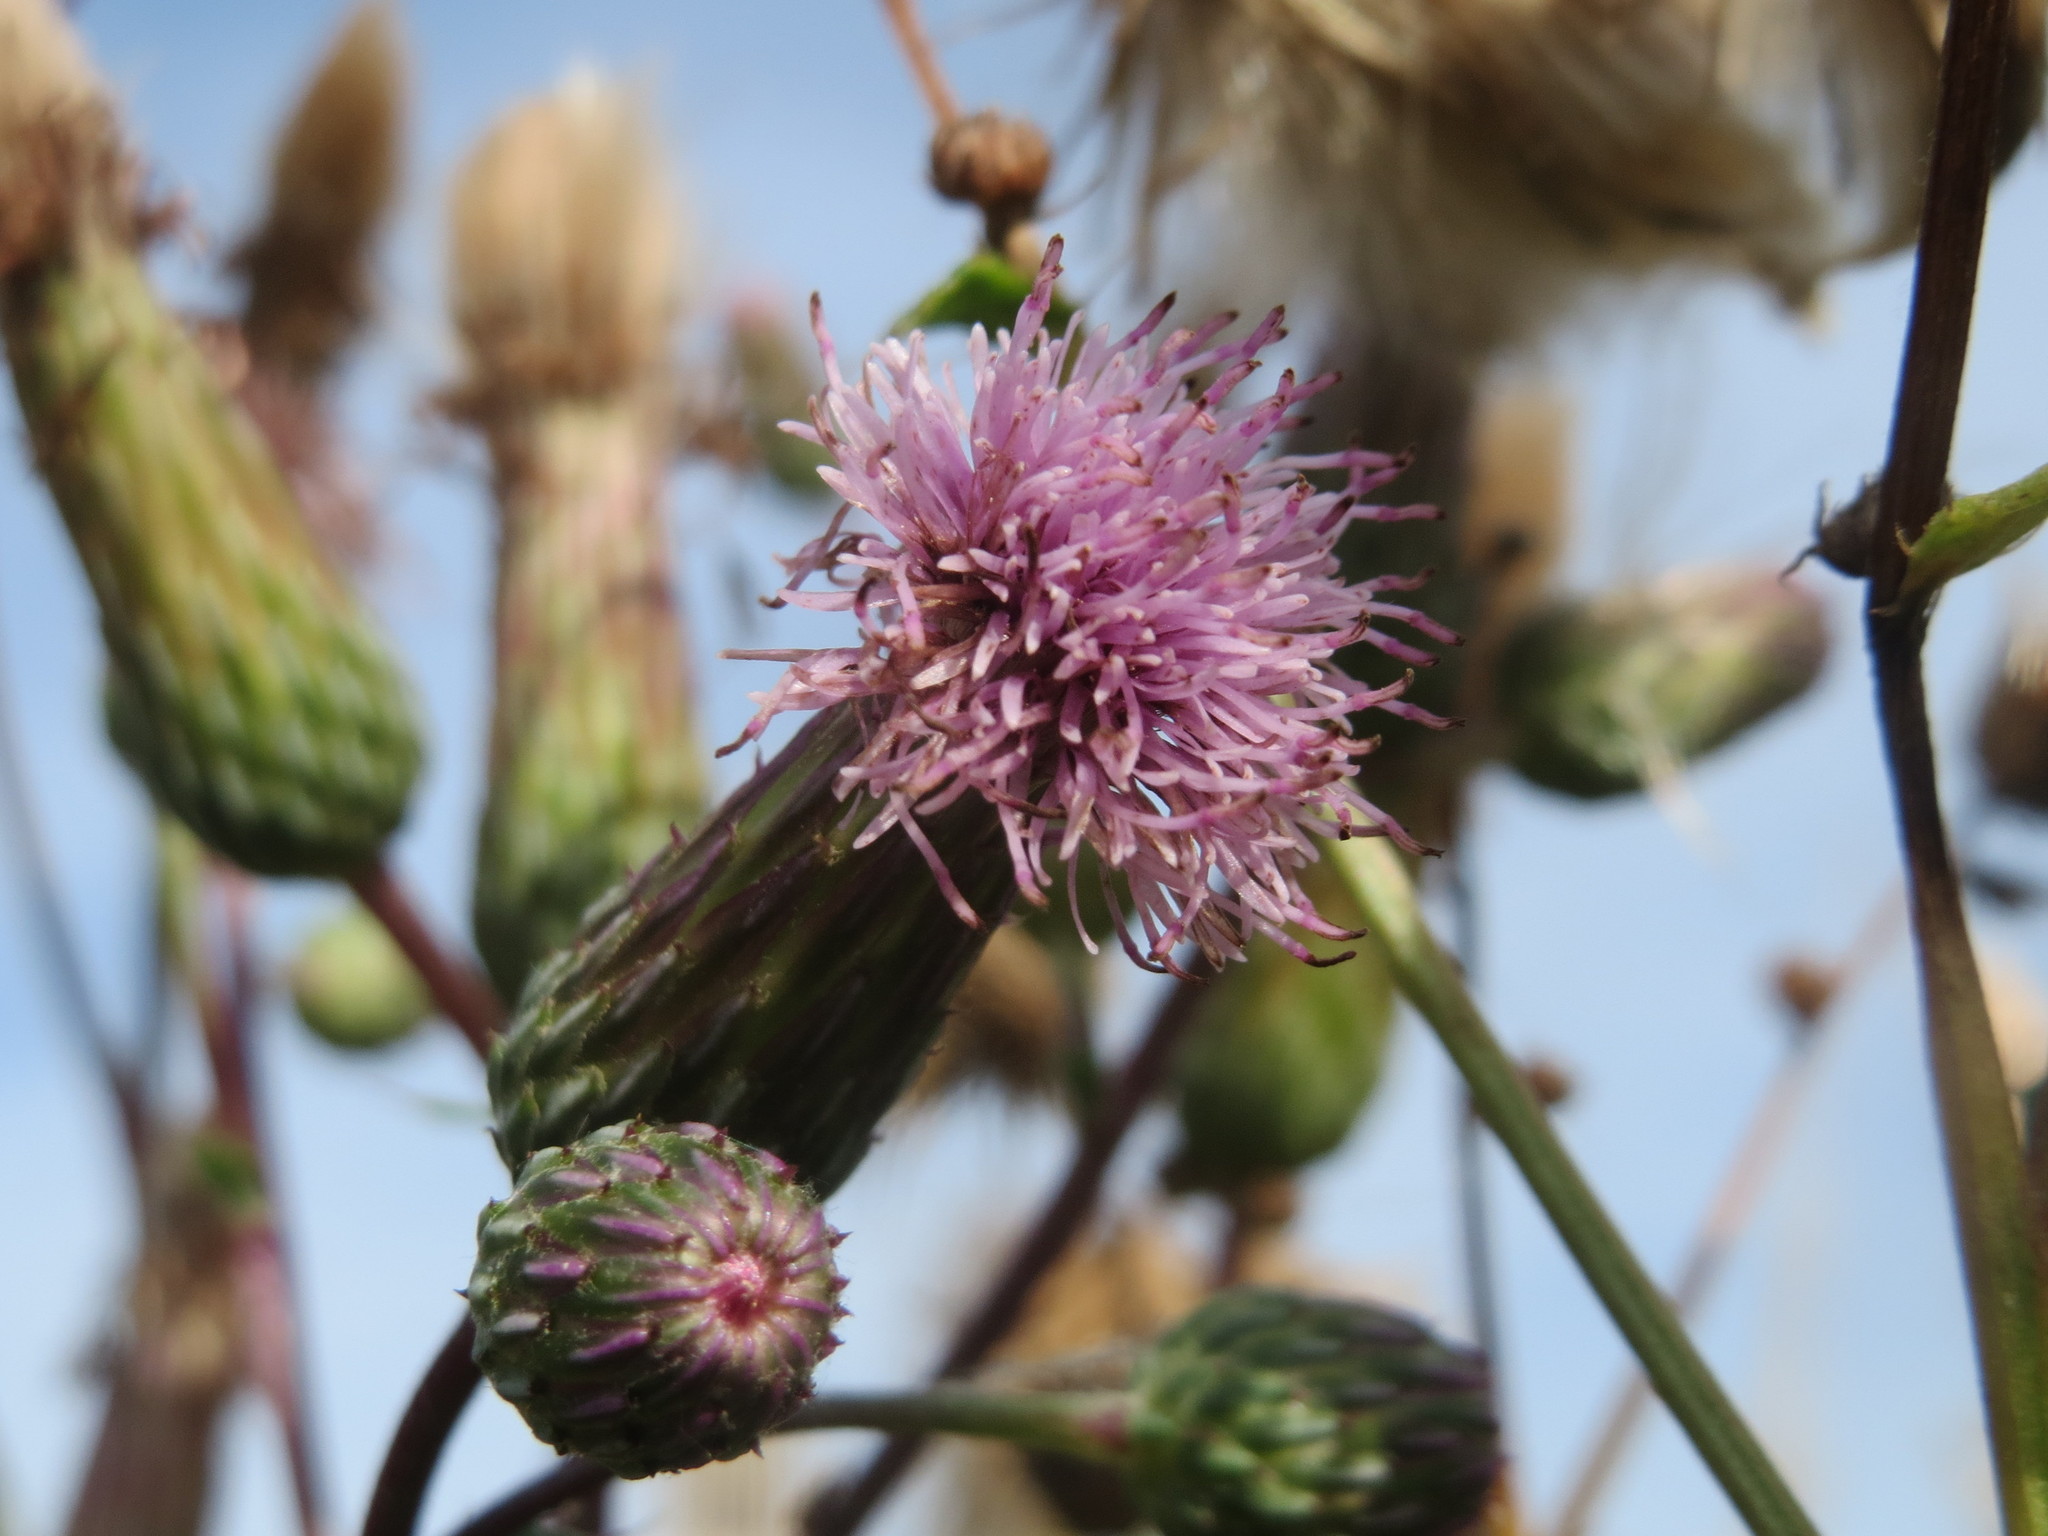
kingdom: Plantae
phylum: Tracheophyta
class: Magnoliopsida
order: Asterales
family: Asteraceae
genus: Cirsium
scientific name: Cirsium arvense
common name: Creeping thistle
